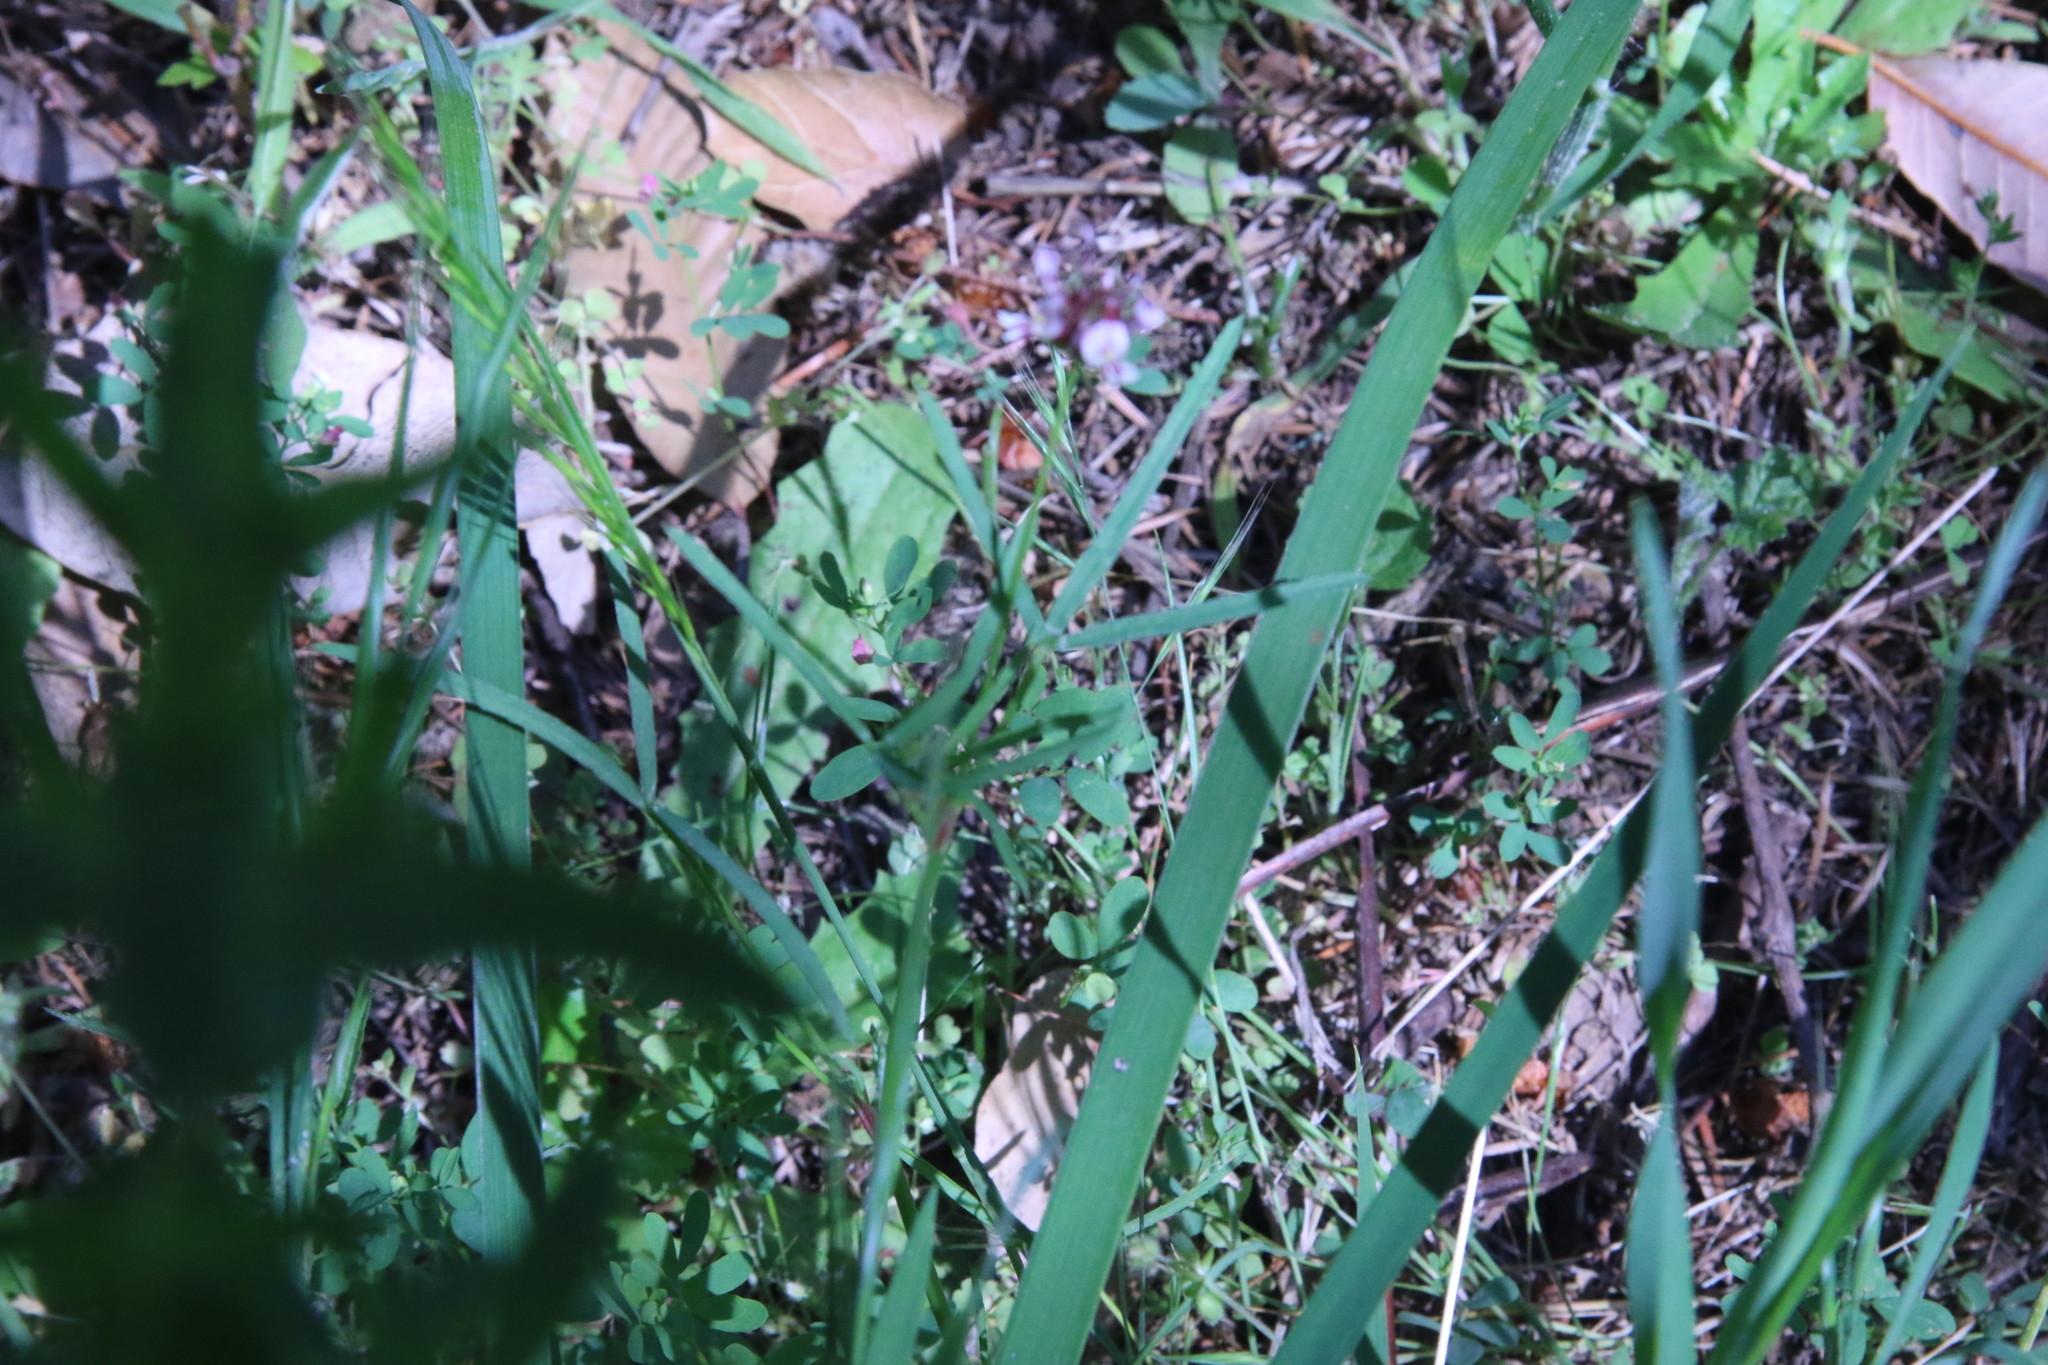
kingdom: Plantae
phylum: Tracheophyta
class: Magnoliopsida
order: Fabales
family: Fabaceae
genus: Trifolium
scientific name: Trifolium willdenovii
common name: Tomcat clover
